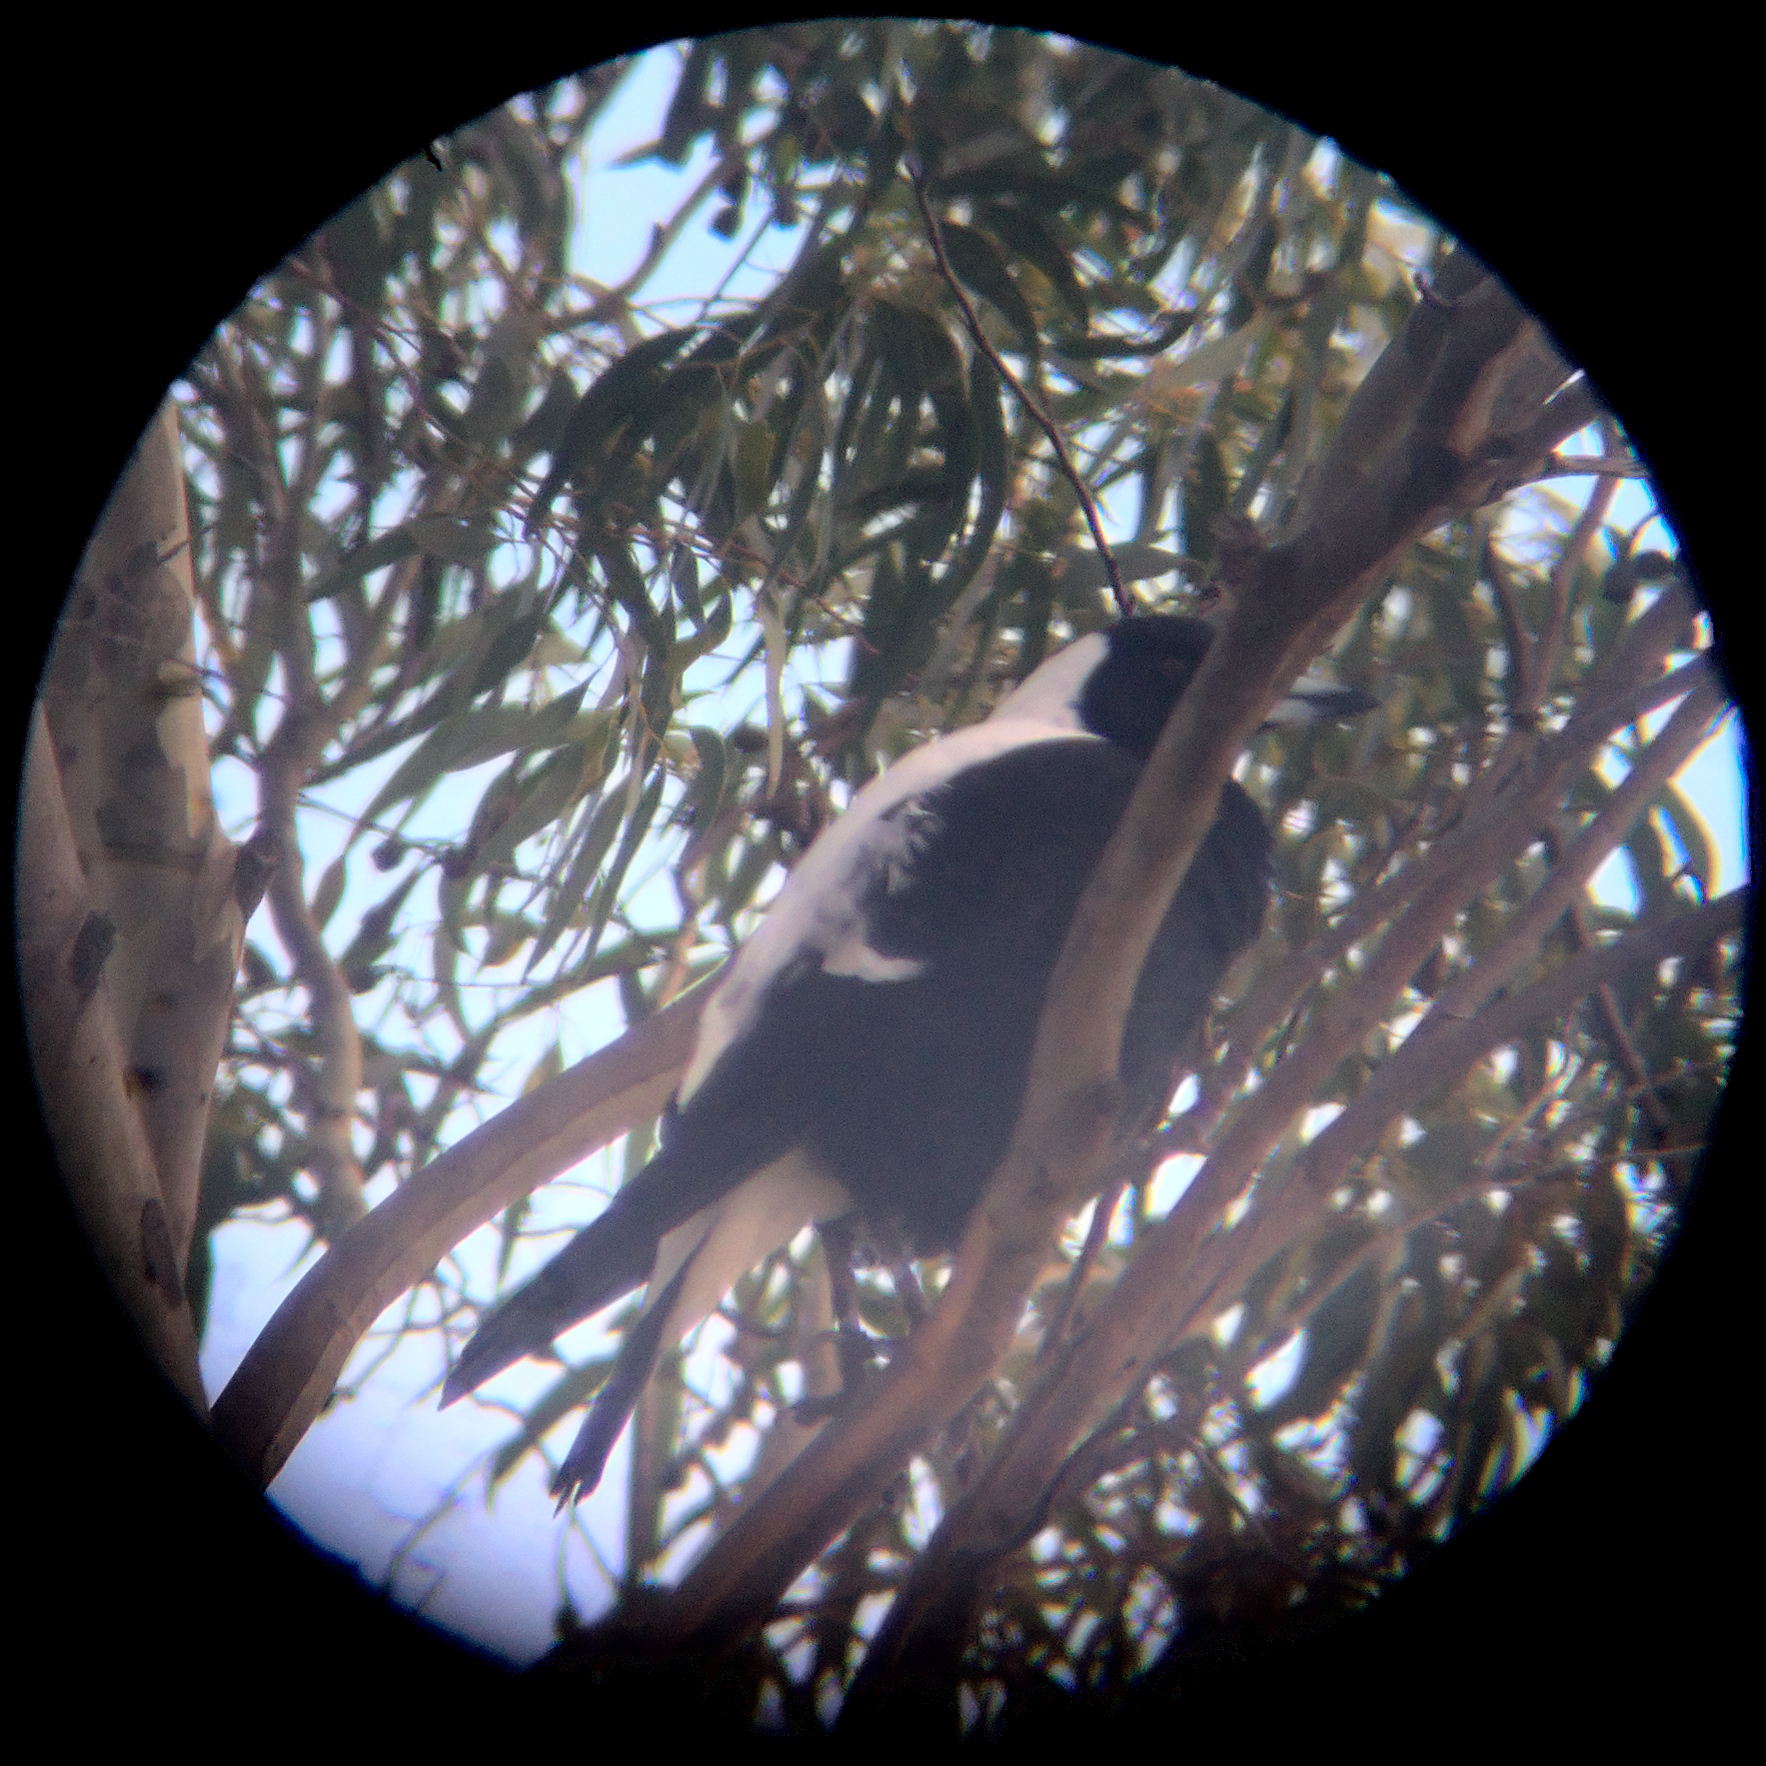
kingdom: Animalia
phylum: Chordata
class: Aves
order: Passeriformes
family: Cracticidae
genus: Gymnorhina
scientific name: Gymnorhina tibicen
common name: Australian magpie
